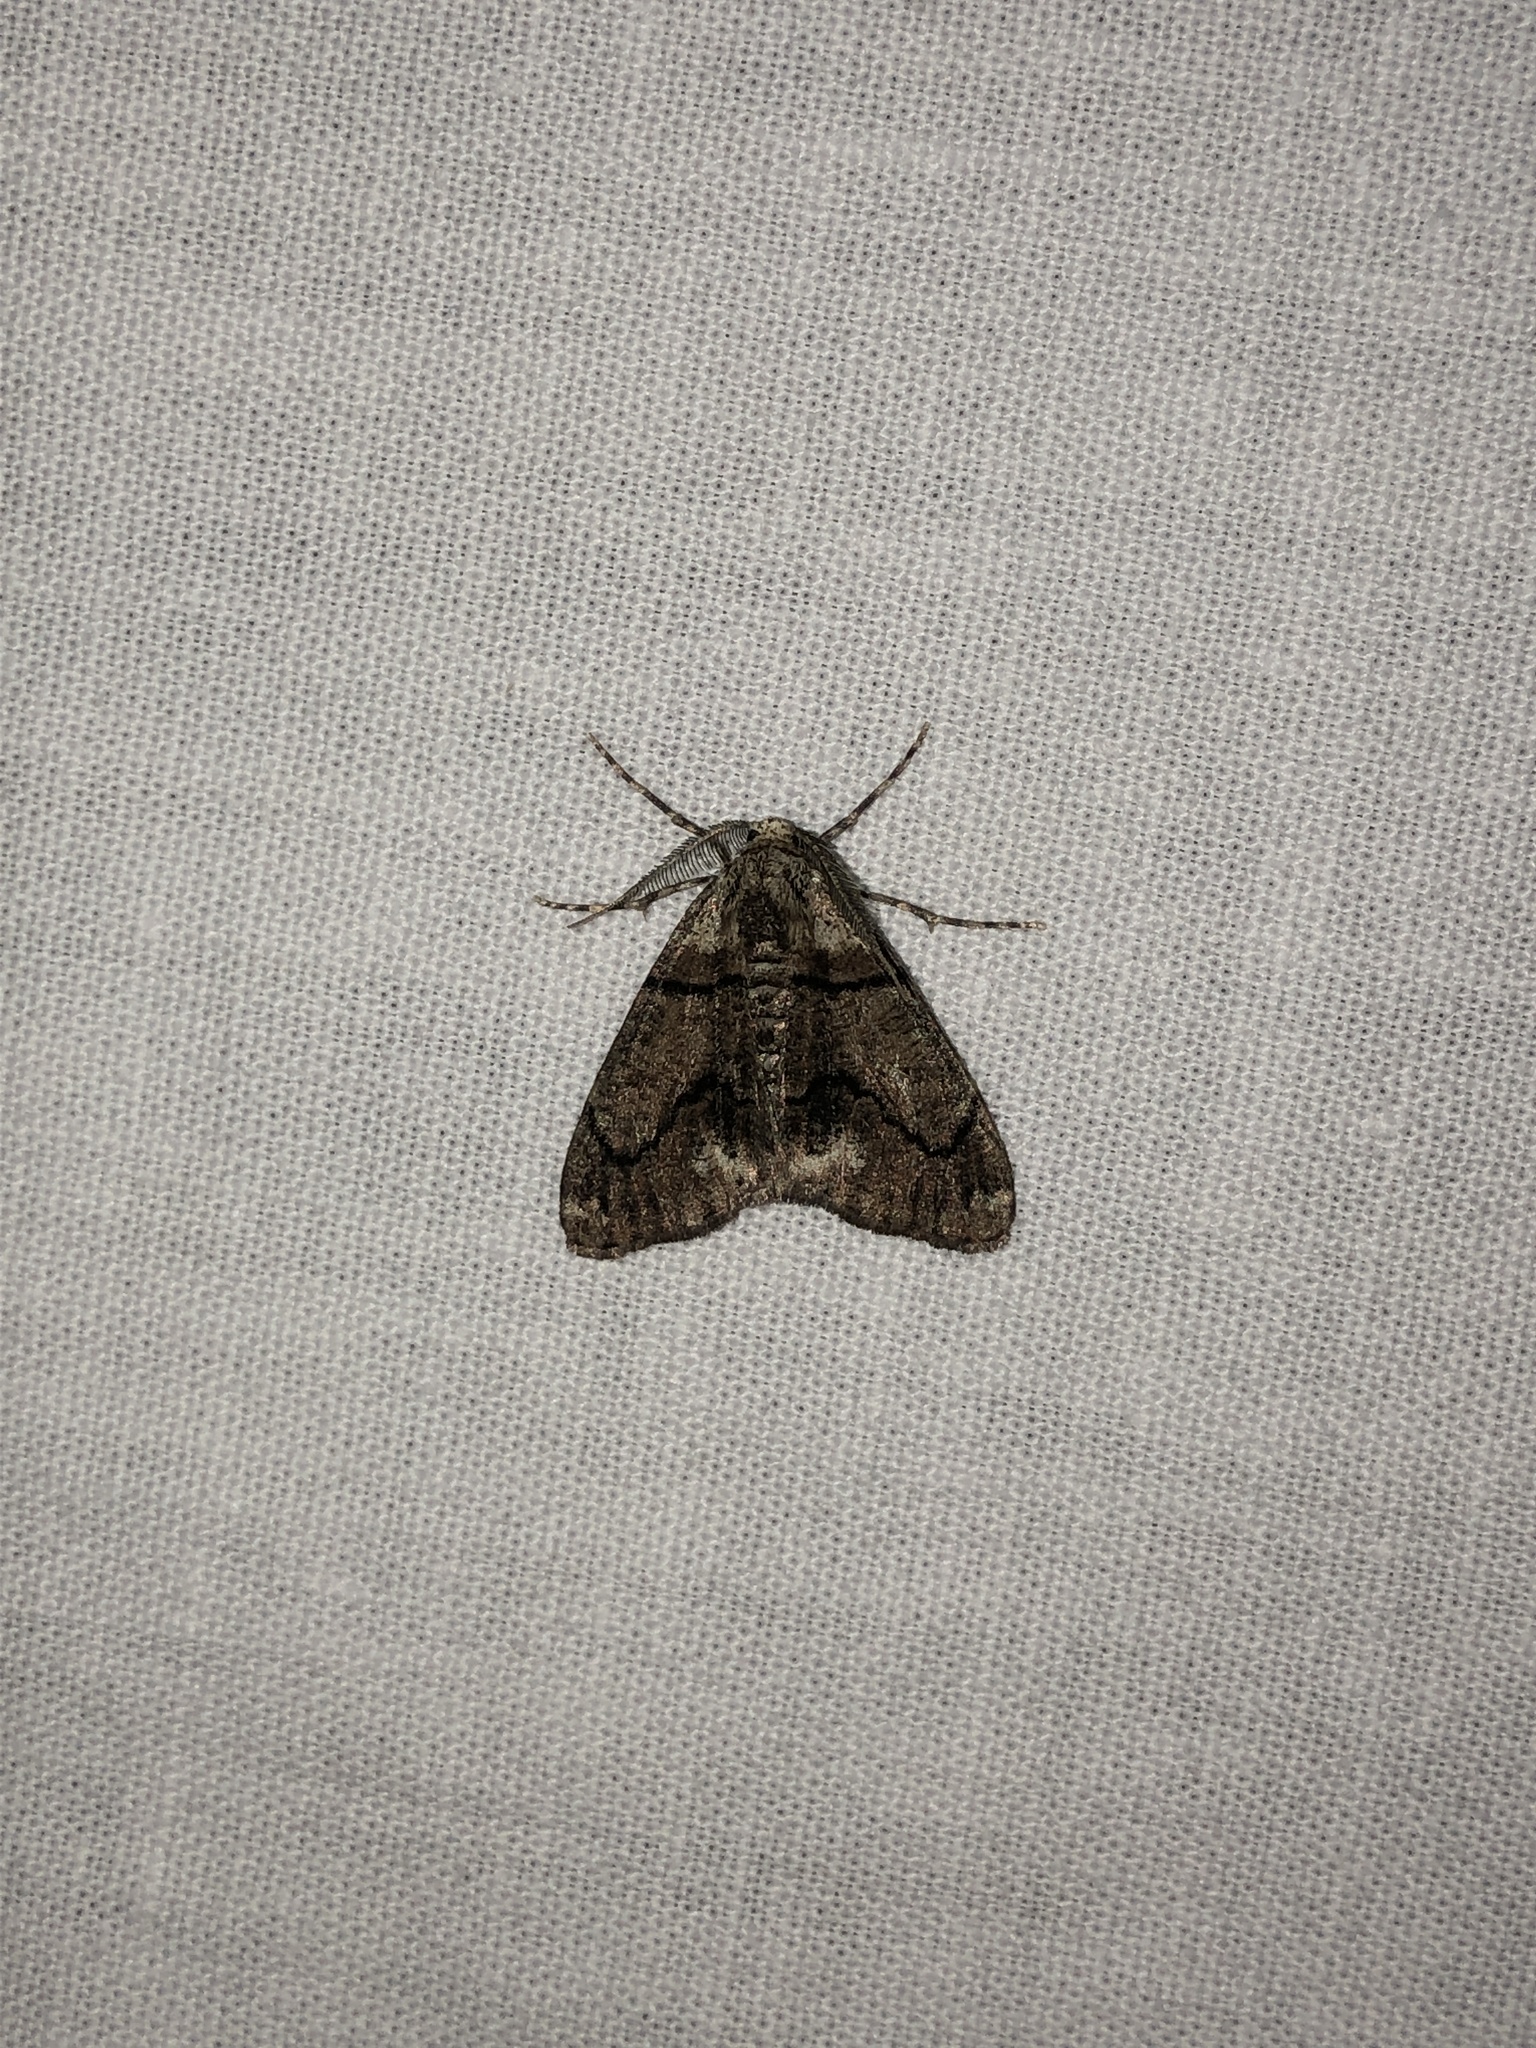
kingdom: Animalia
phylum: Arthropoda
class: Insecta
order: Lepidoptera
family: Geometridae
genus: Gabriola
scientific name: Gabriola dyari
